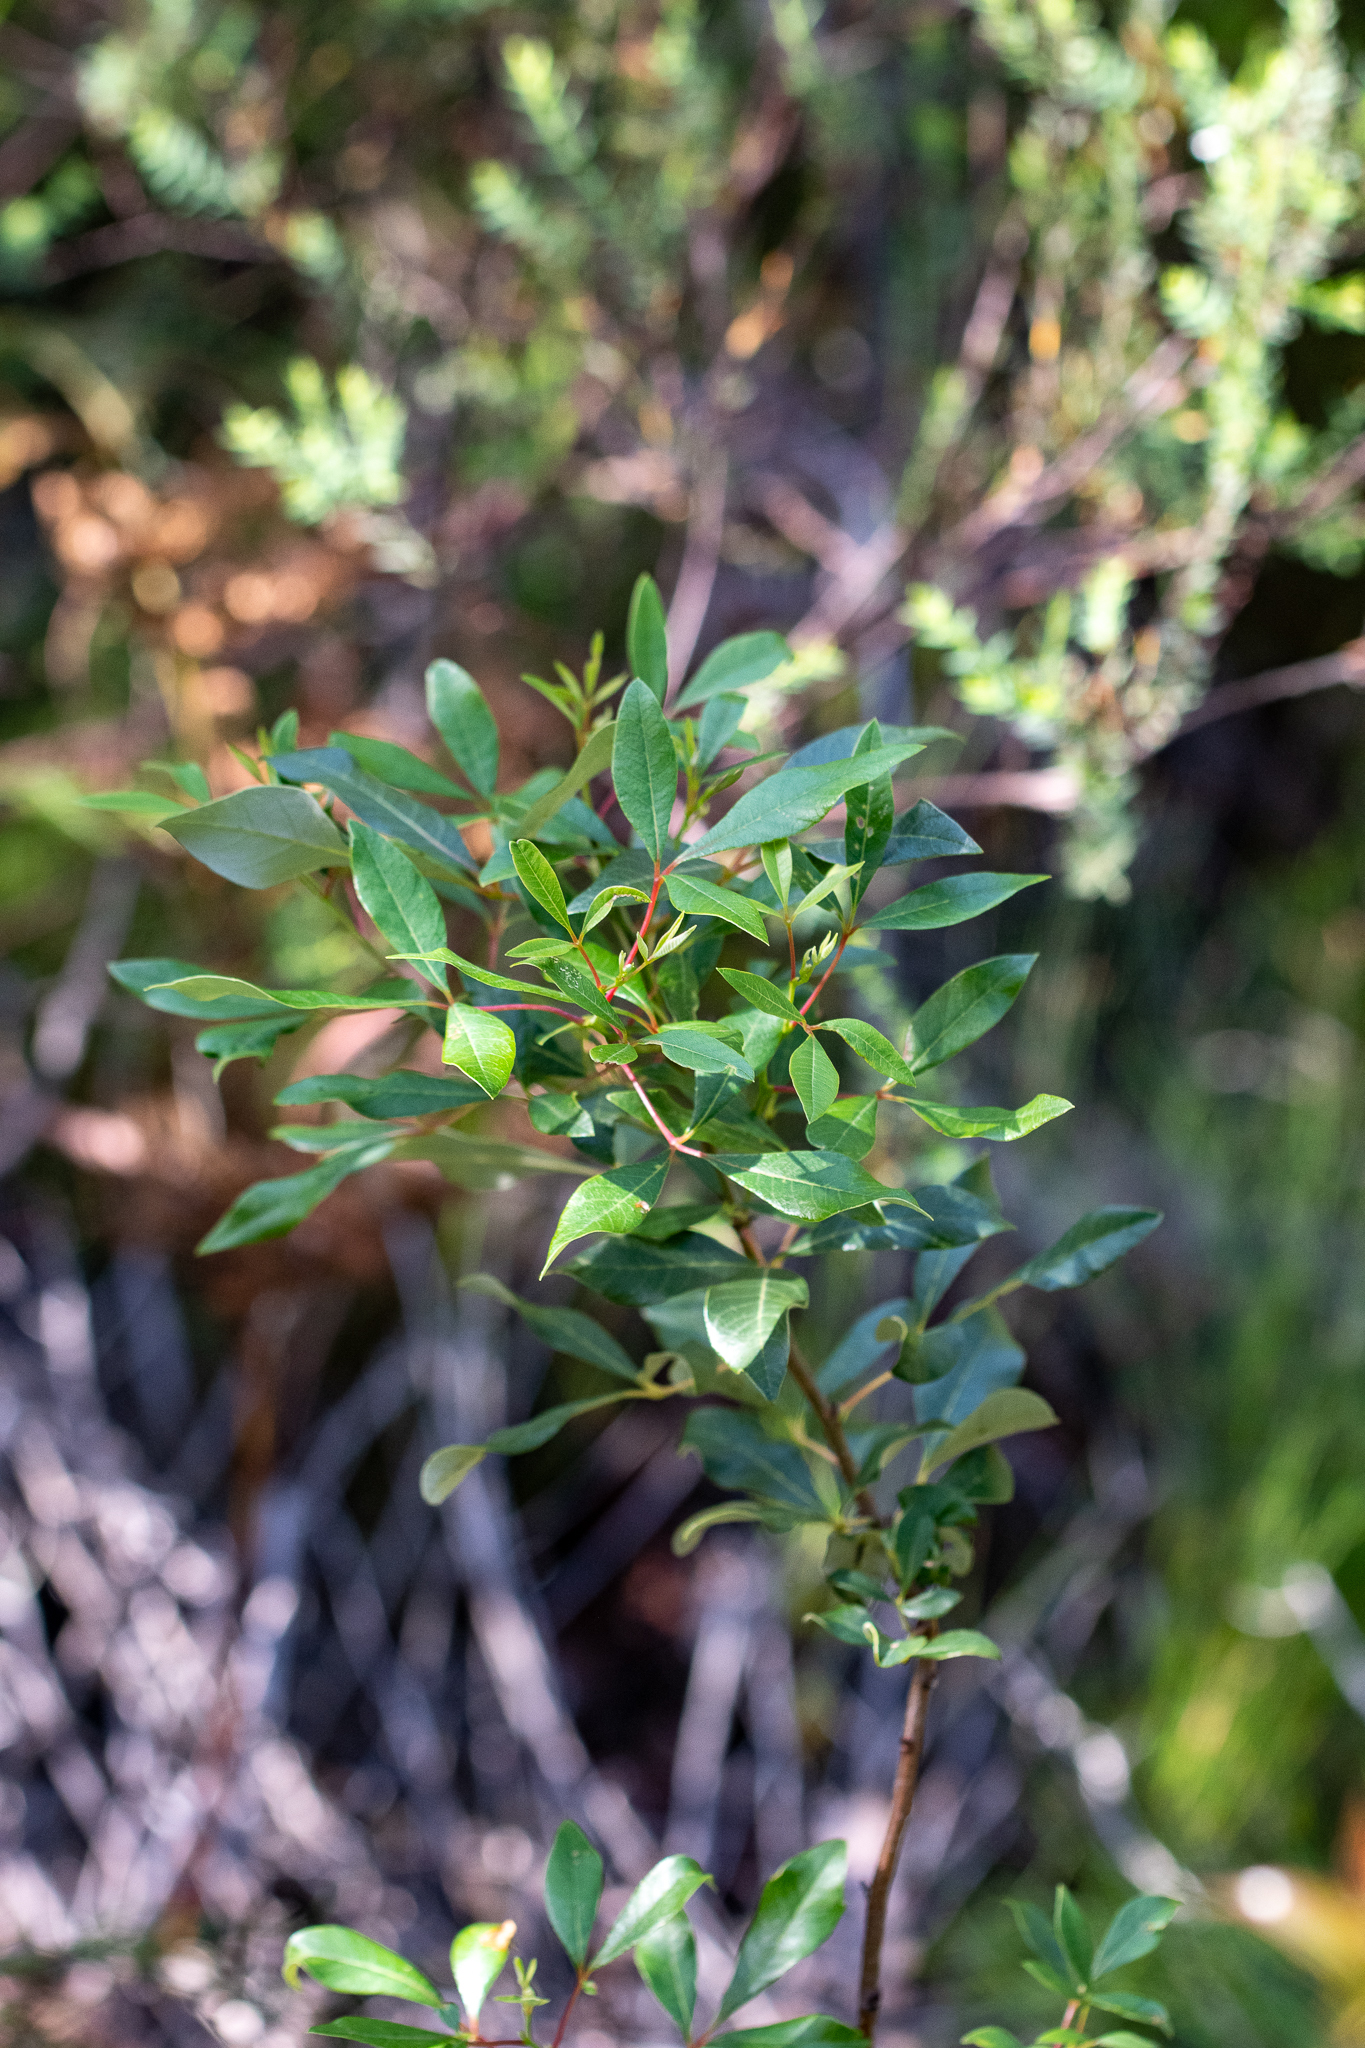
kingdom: Plantae
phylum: Tracheophyta
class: Magnoliopsida
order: Sapindales
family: Anacardiaceae
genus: Searsia
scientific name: Searsia tomentosa
